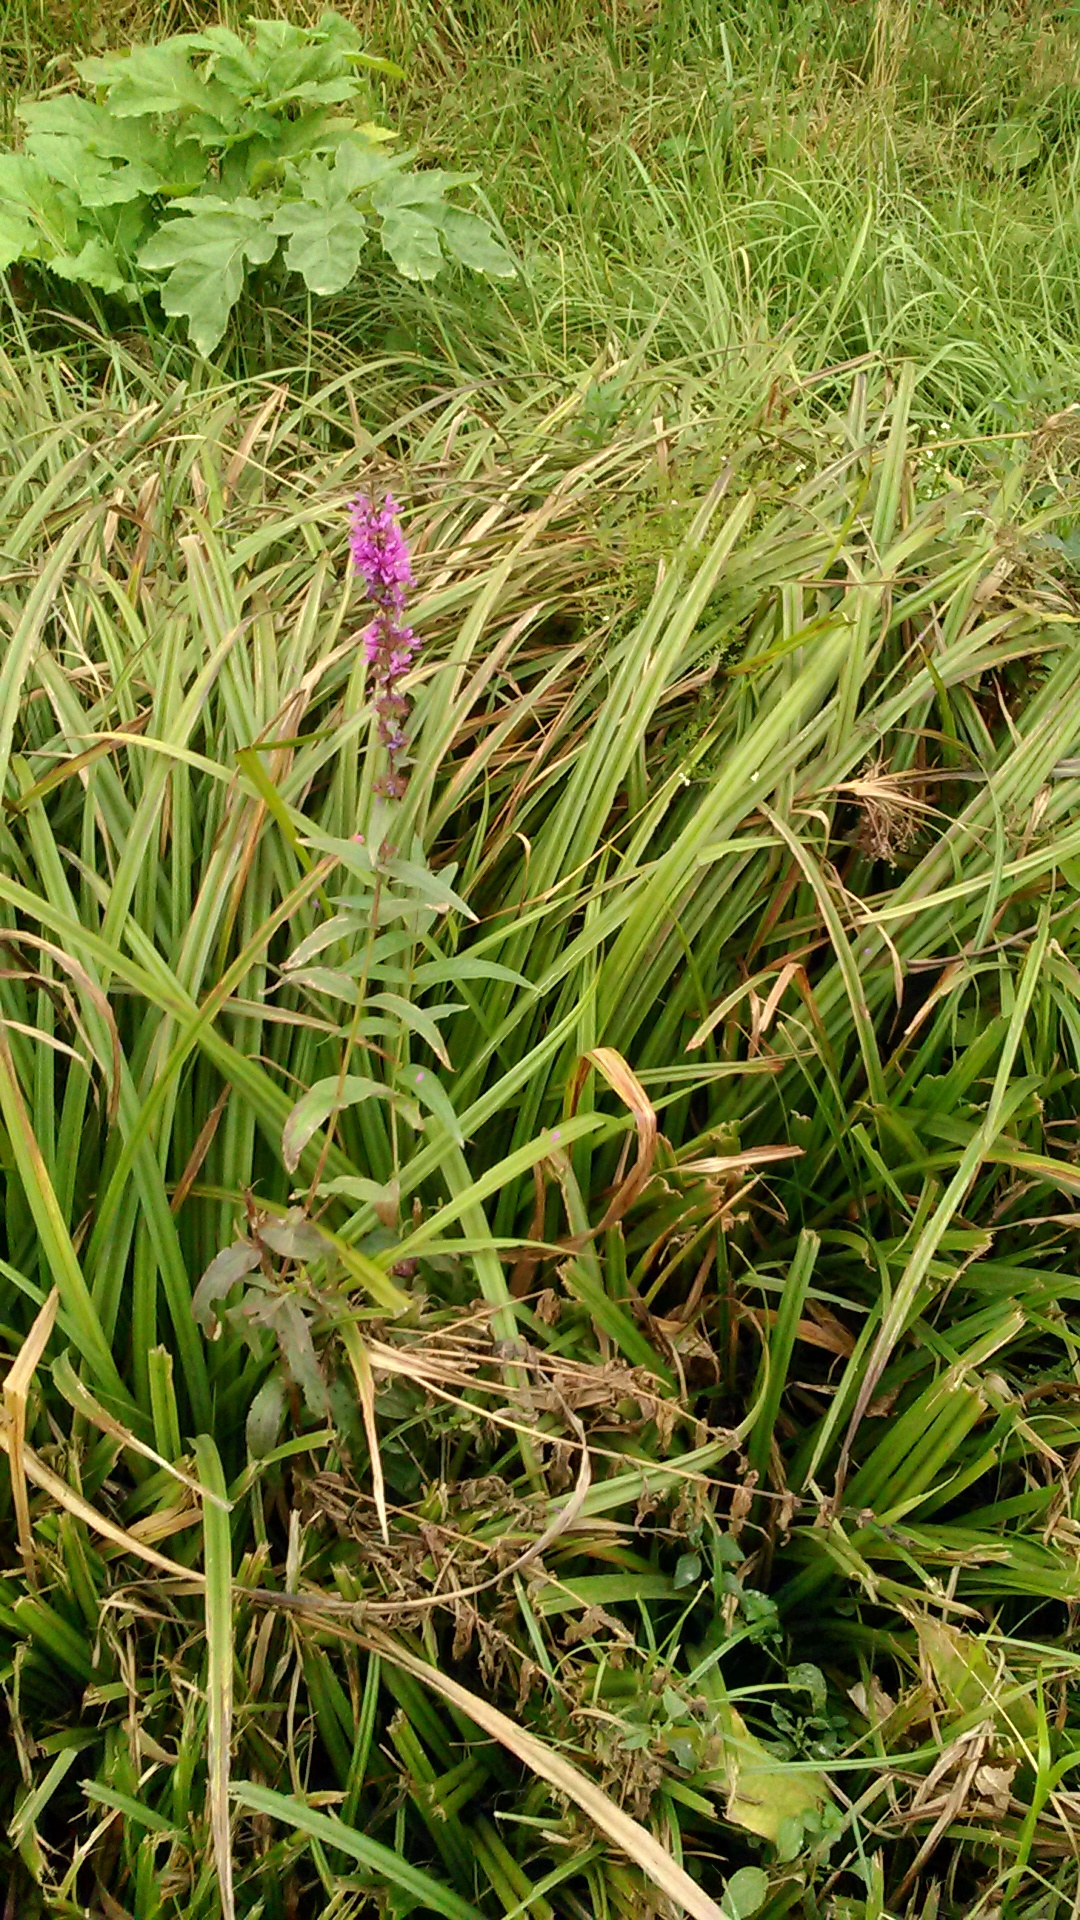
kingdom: Plantae
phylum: Tracheophyta
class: Magnoliopsida
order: Myrtales
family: Lythraceae
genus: Lythrum
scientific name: Lythrum salicaria
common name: Purple loosestrife
